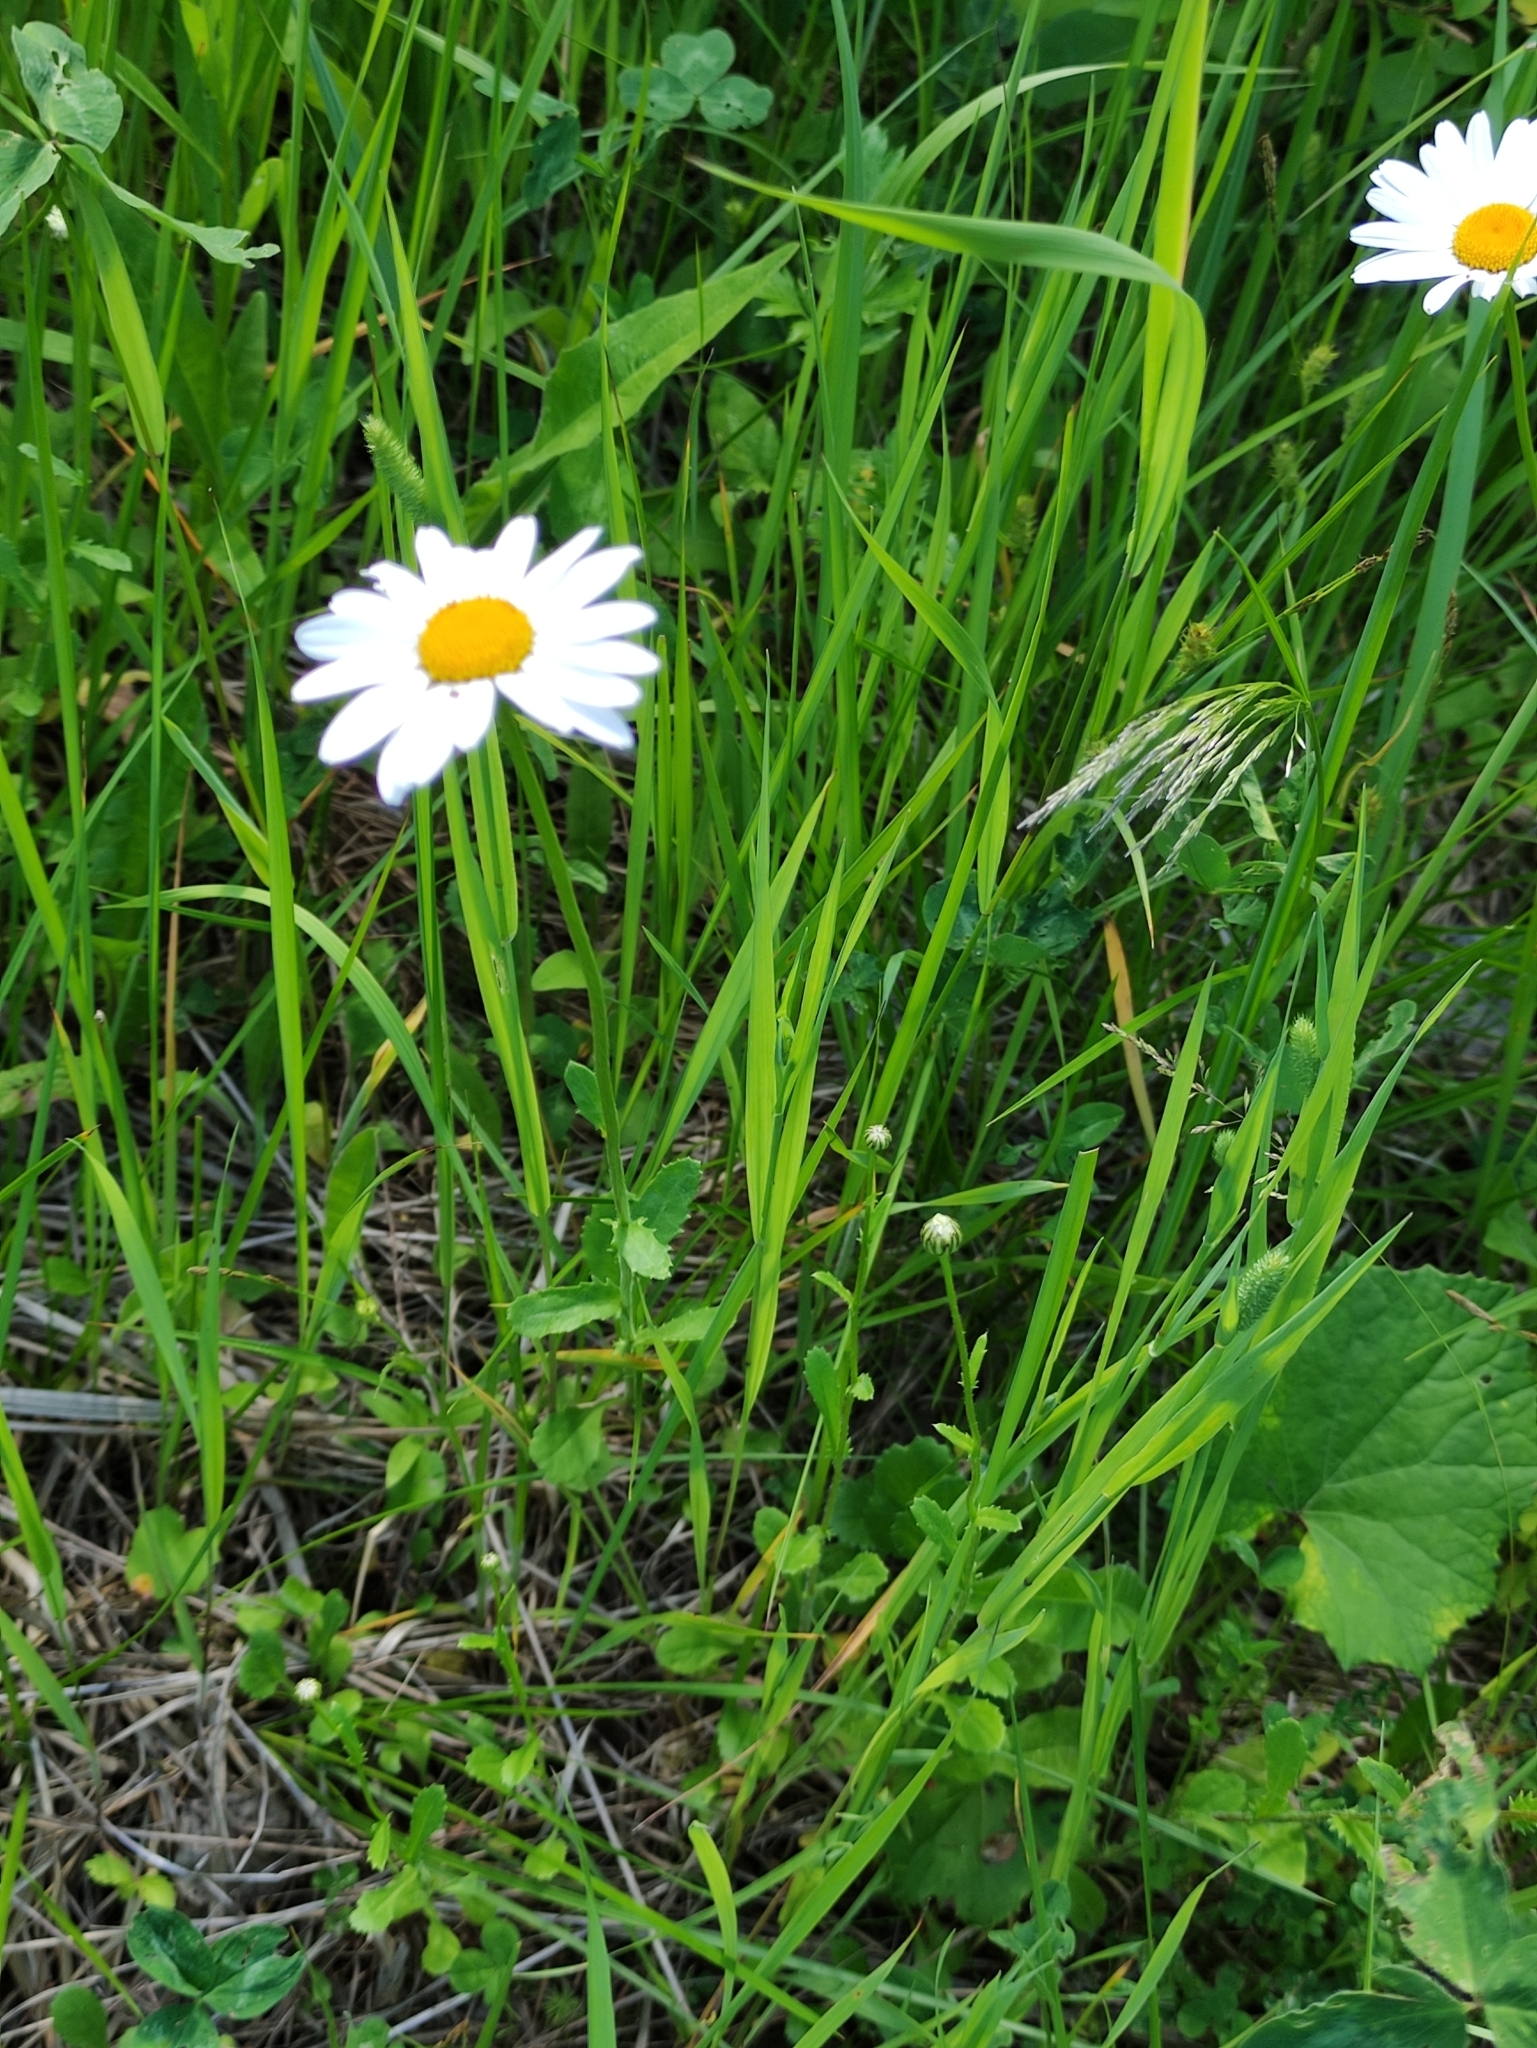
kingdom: Plantae
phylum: Tracheophyta
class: Magnoliopsida
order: Asterales
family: Asteraceae
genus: Leucanthemum
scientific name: Leucanthemum vulgare
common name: Oxeye daisy
